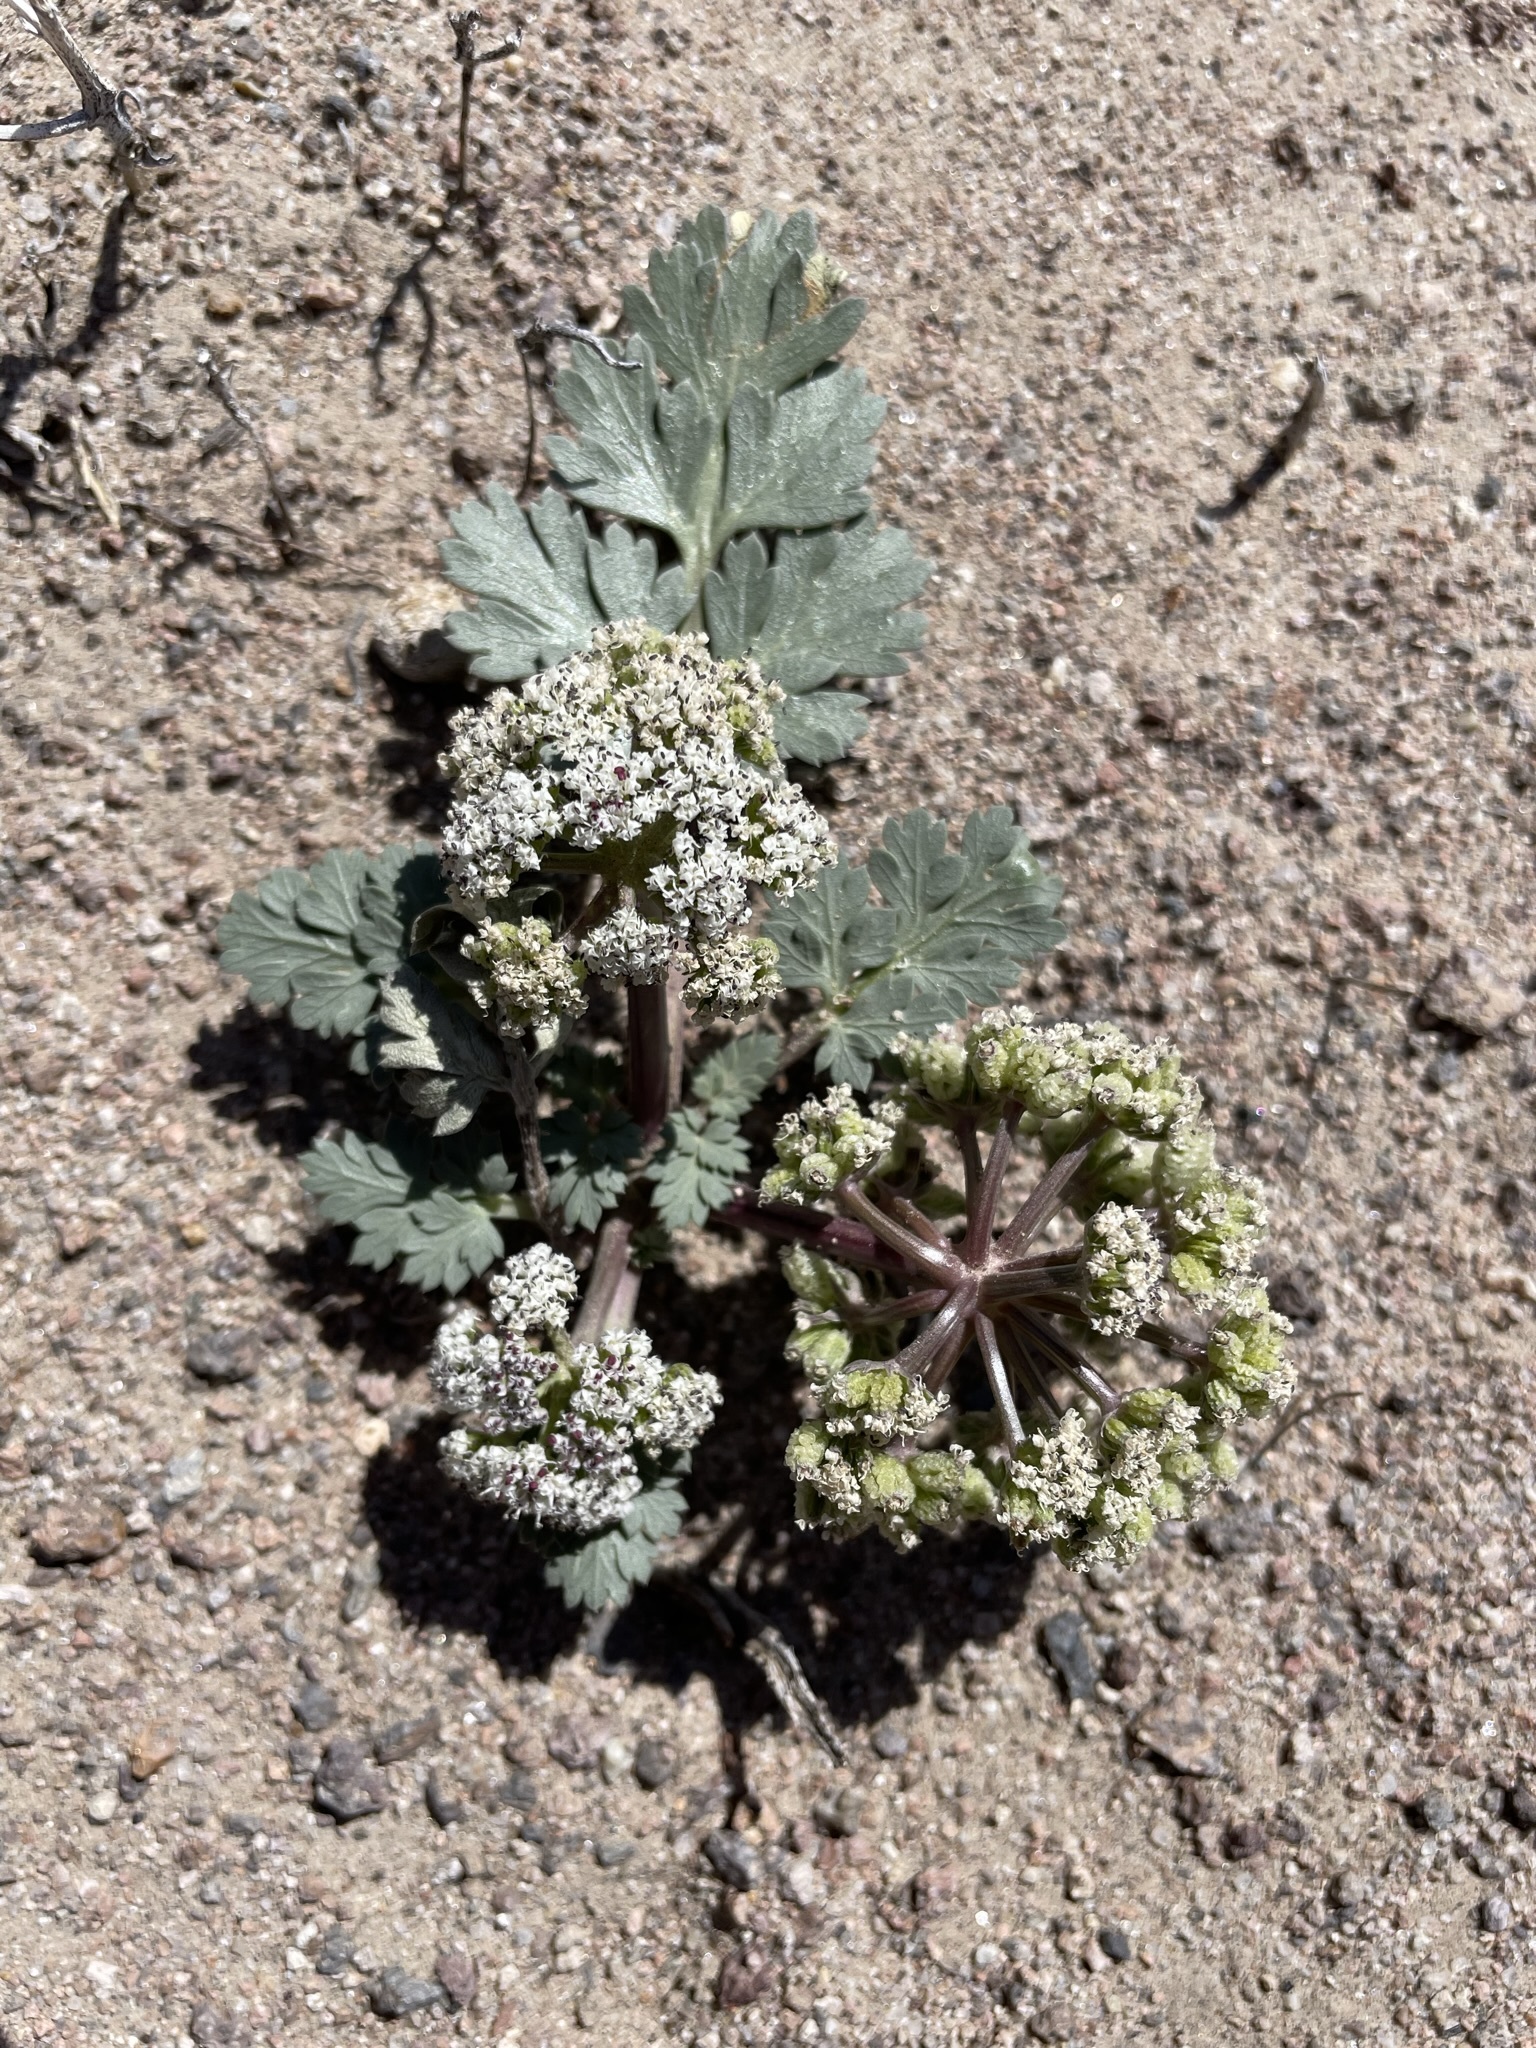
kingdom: Plantae
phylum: Tracheophyta
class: Magnoliopsida
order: Apiales
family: Apiaceae
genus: Rhysopterus
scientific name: Rhysopterus plurijugus
